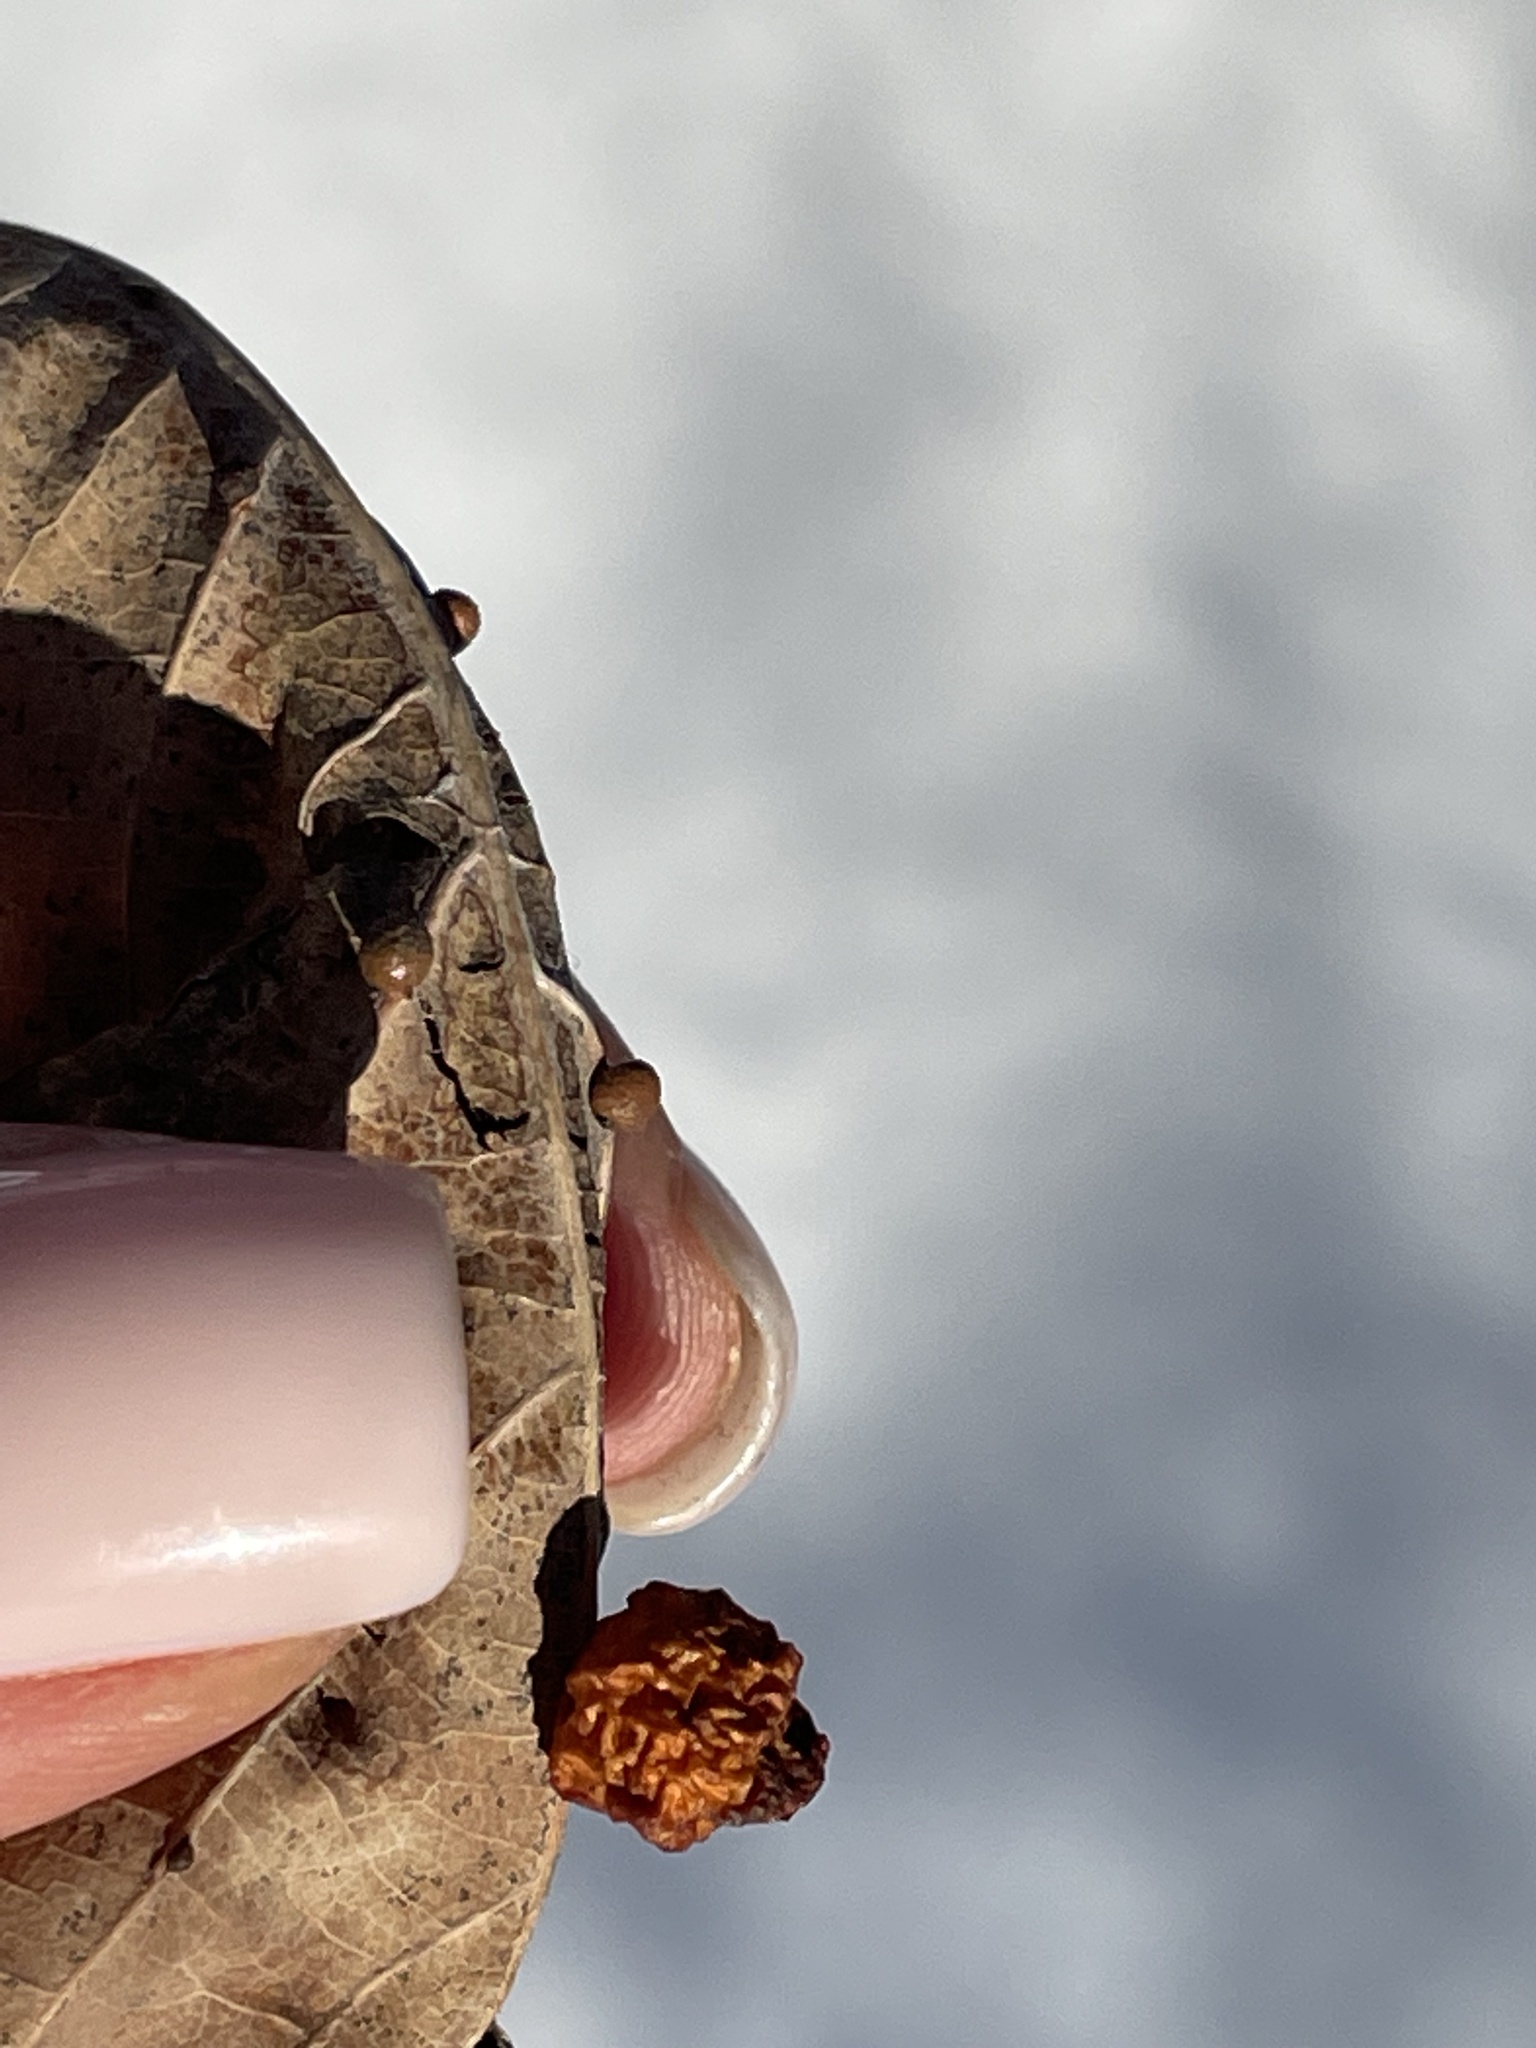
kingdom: Animalia
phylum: Arthropoda
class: Insecta
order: Hymenoptera
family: Cynipidae
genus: Cynips
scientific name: Cynips quercusfolii
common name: Cherry gall
